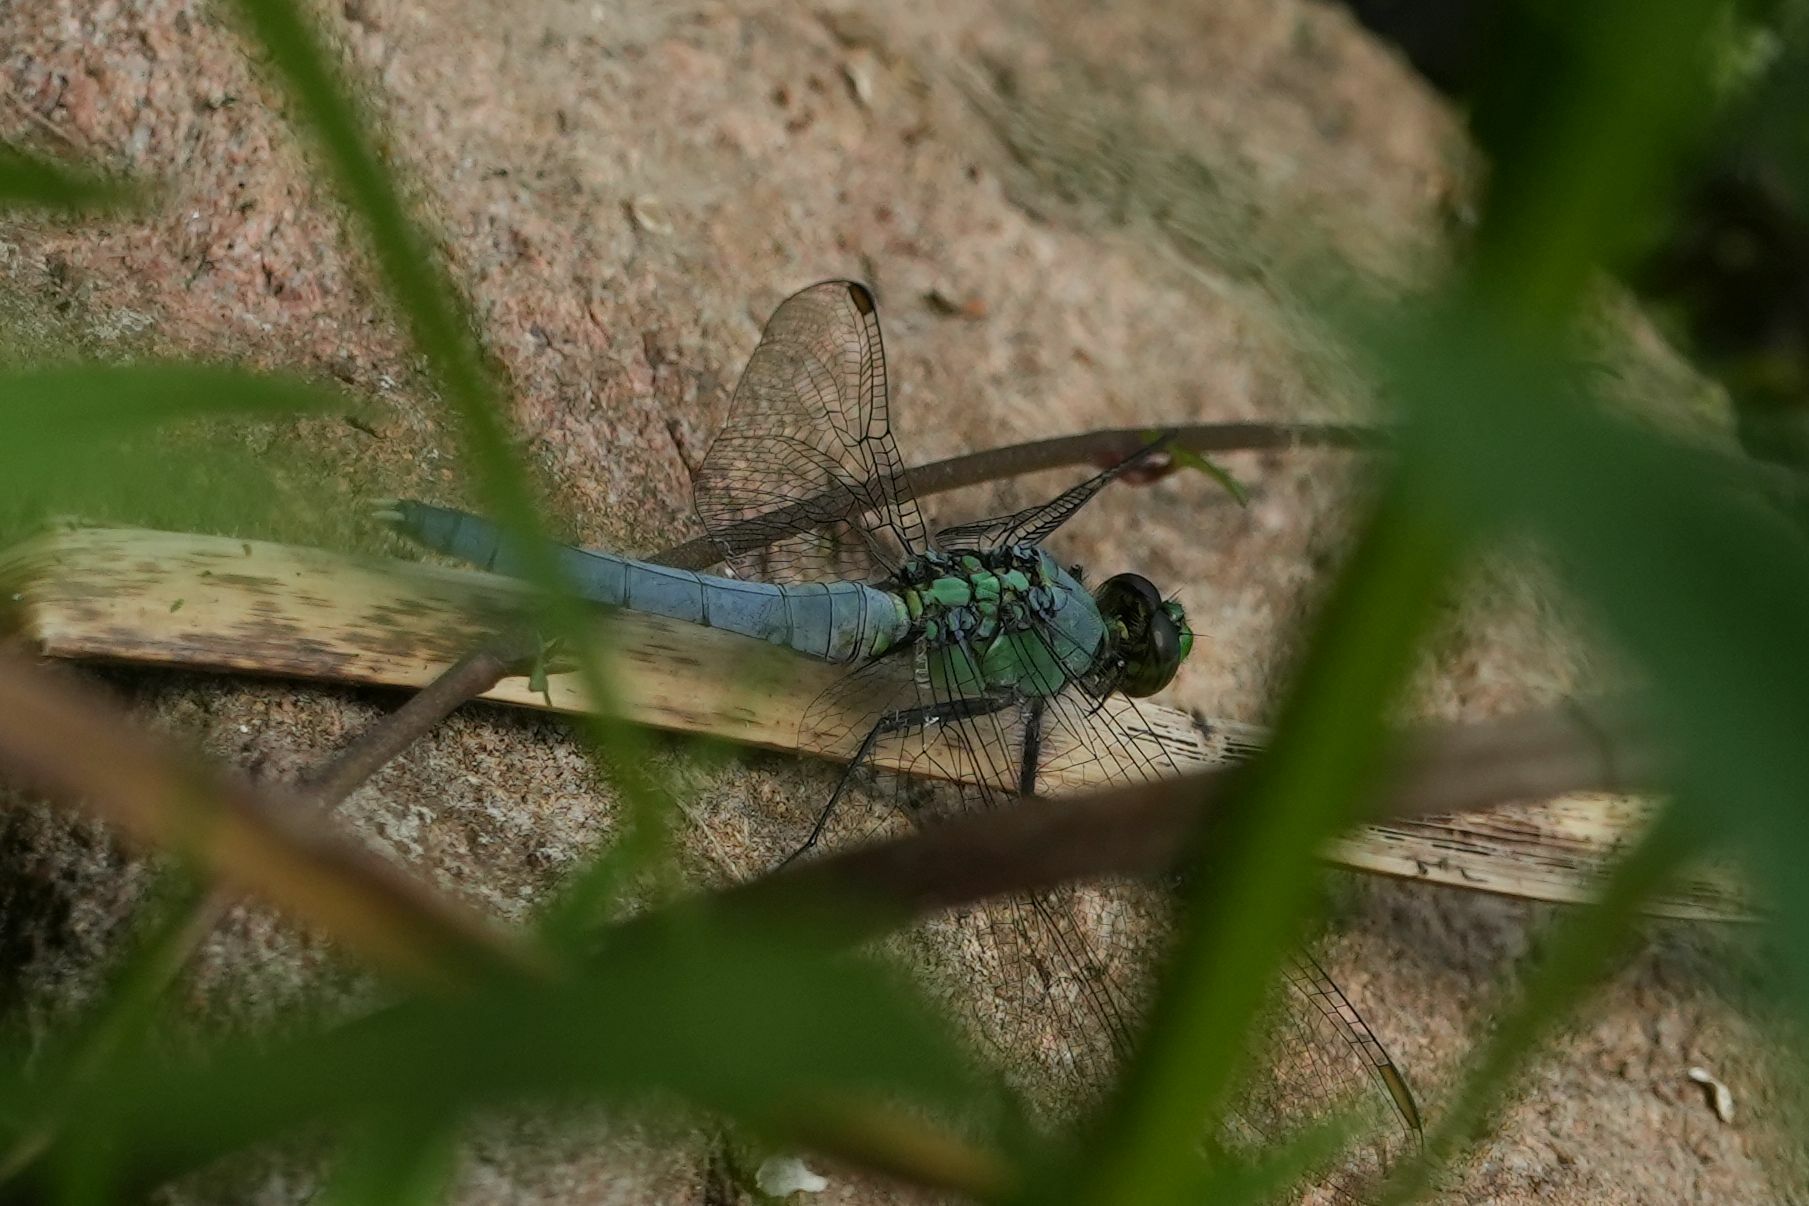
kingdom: Animalia
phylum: Arthropoda
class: Insecta
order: Odonata
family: Libellulidae
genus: Erythemis
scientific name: Erythemis simplicicollis
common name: Eastern pondhawk
